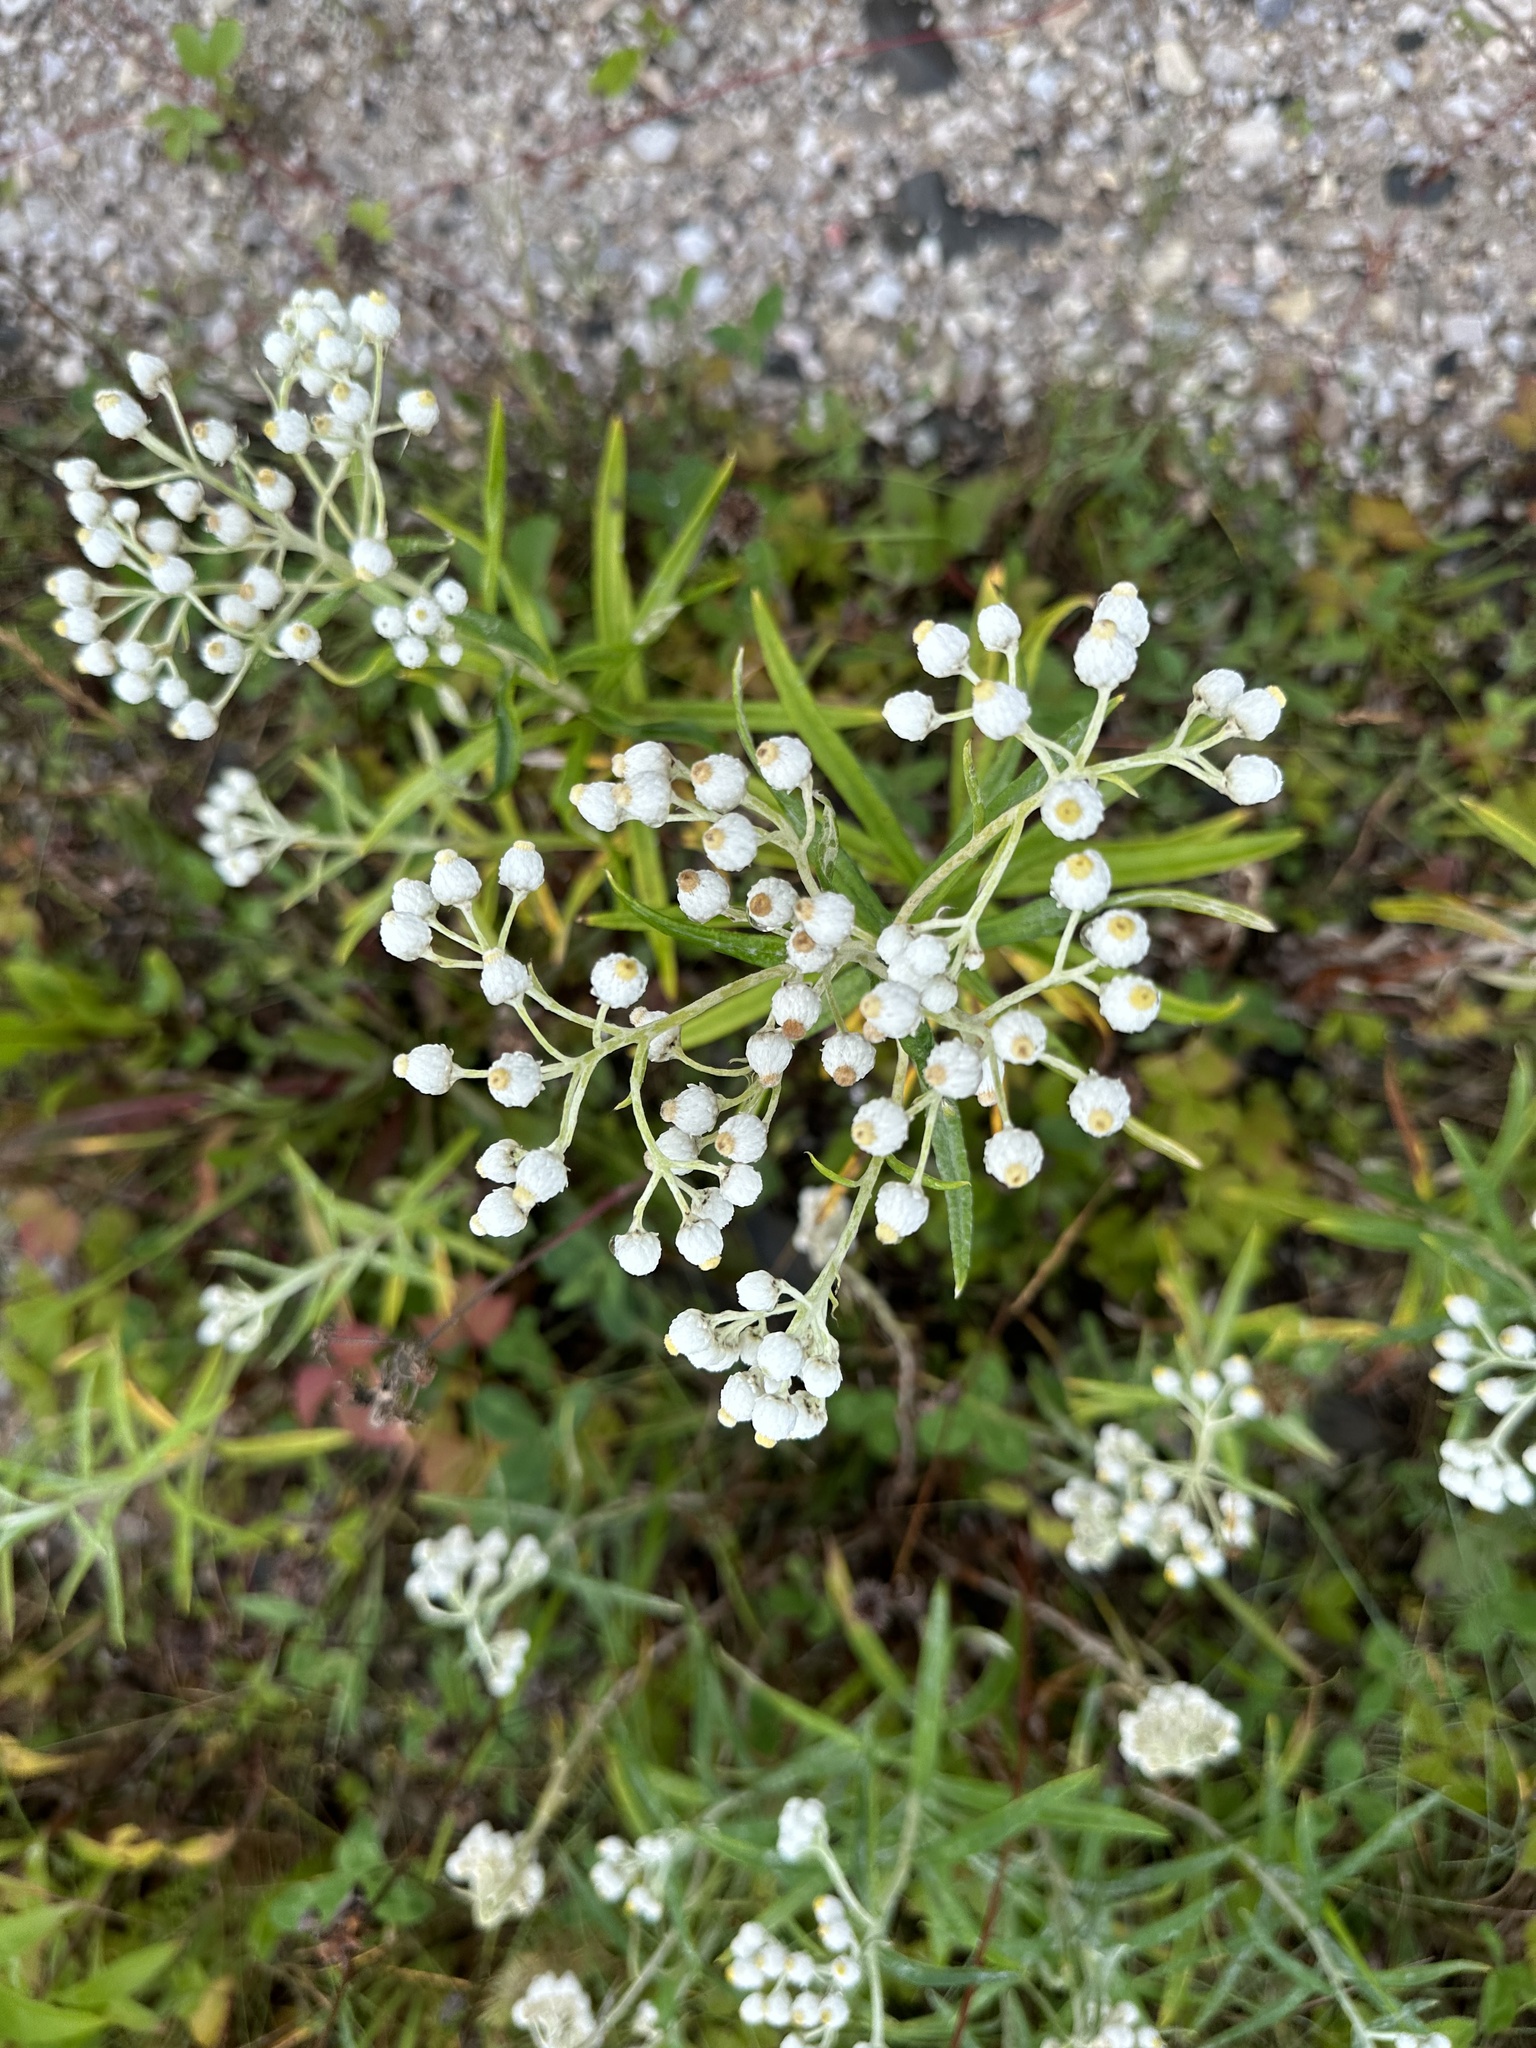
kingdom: Plantae
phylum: Tracheophyta
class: Magnoliopsida
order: Asterales
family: Asteraceae
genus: Anaphalis
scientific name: Anaphalis margaritacea
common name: Pearly everlasting
